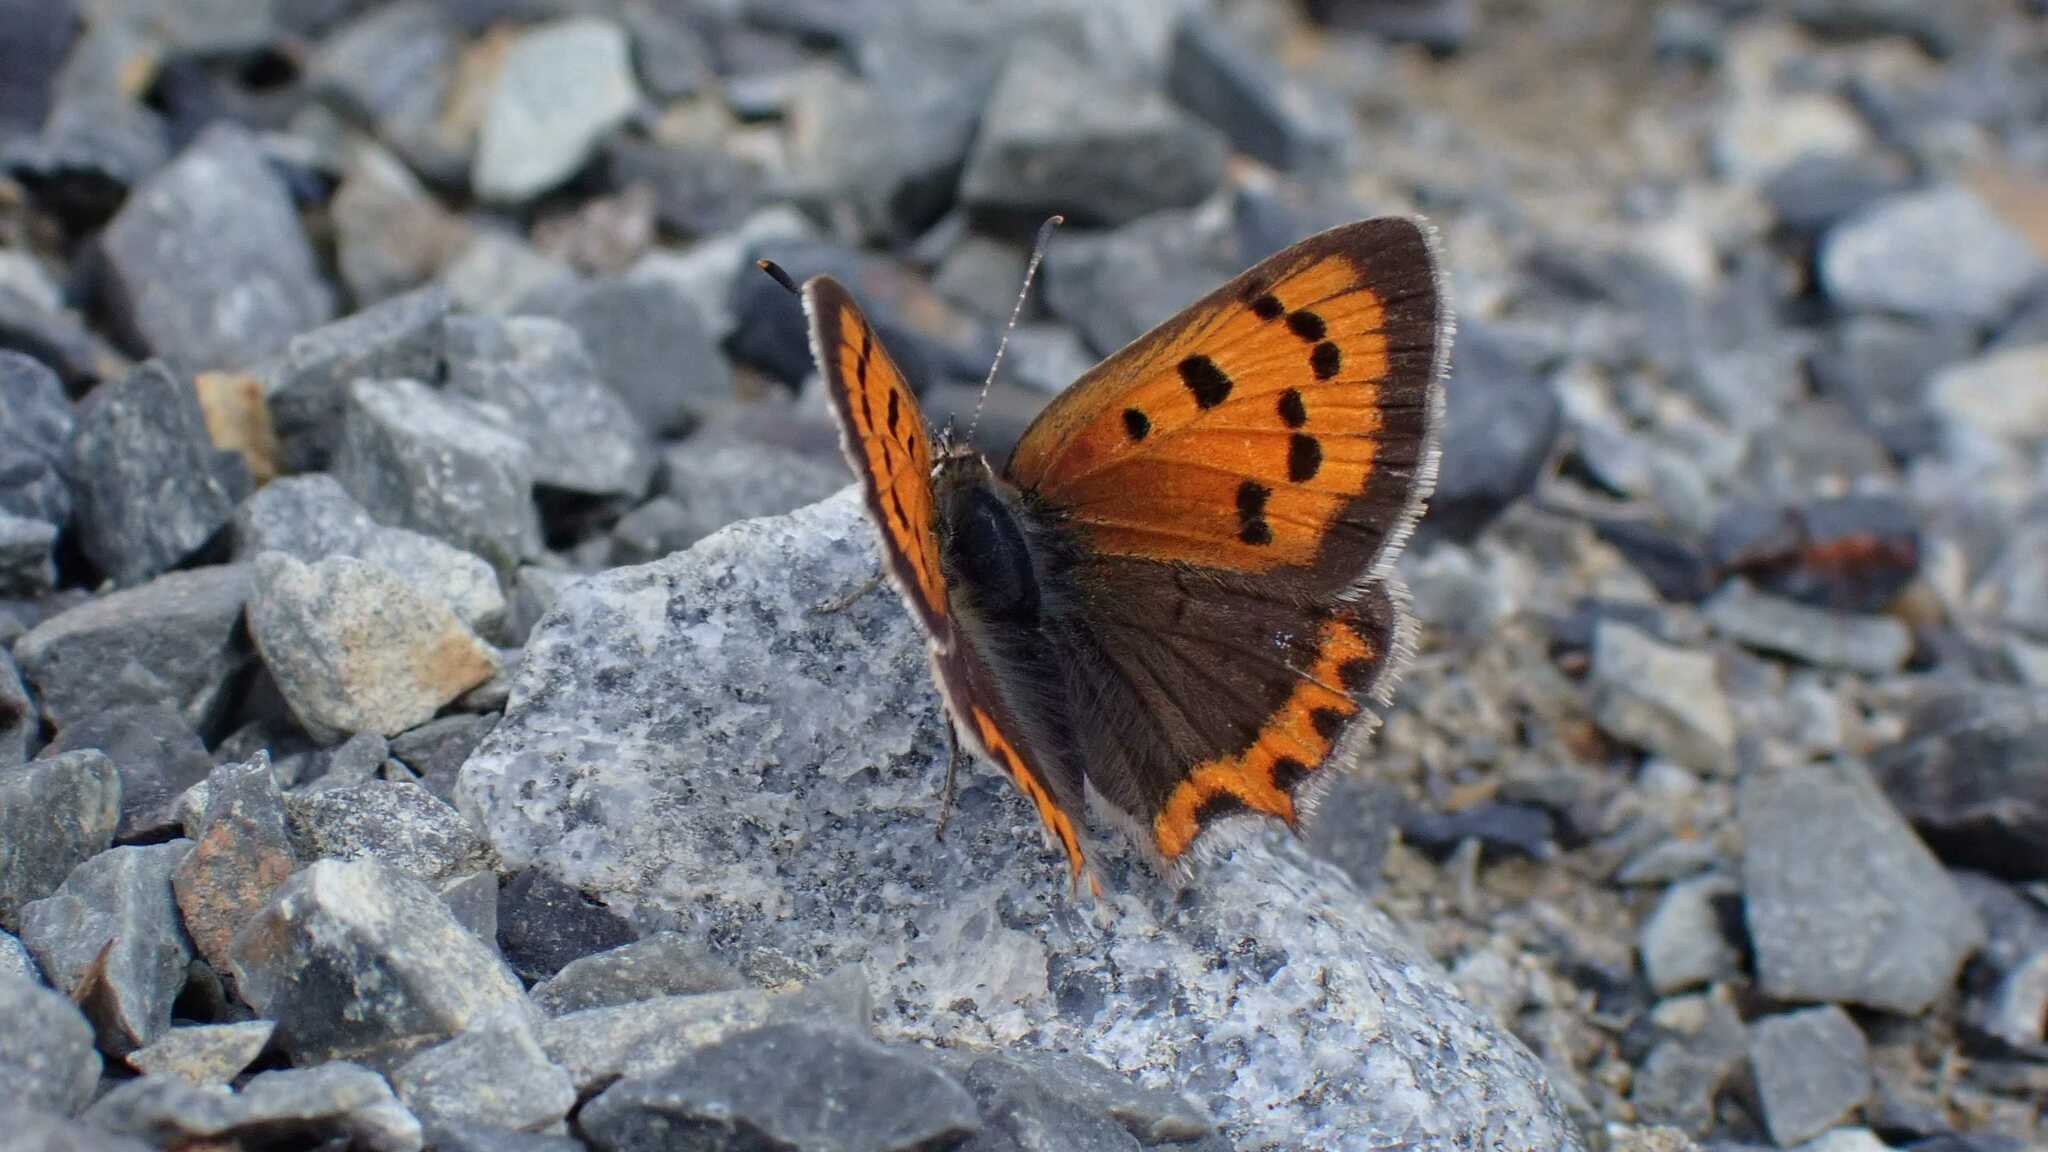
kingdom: Animalia
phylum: Arthropoda
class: Insecta
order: Lepidoptera
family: Lycaenidae
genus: Lycaena
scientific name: Lycaena phlaeas
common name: Small copper
